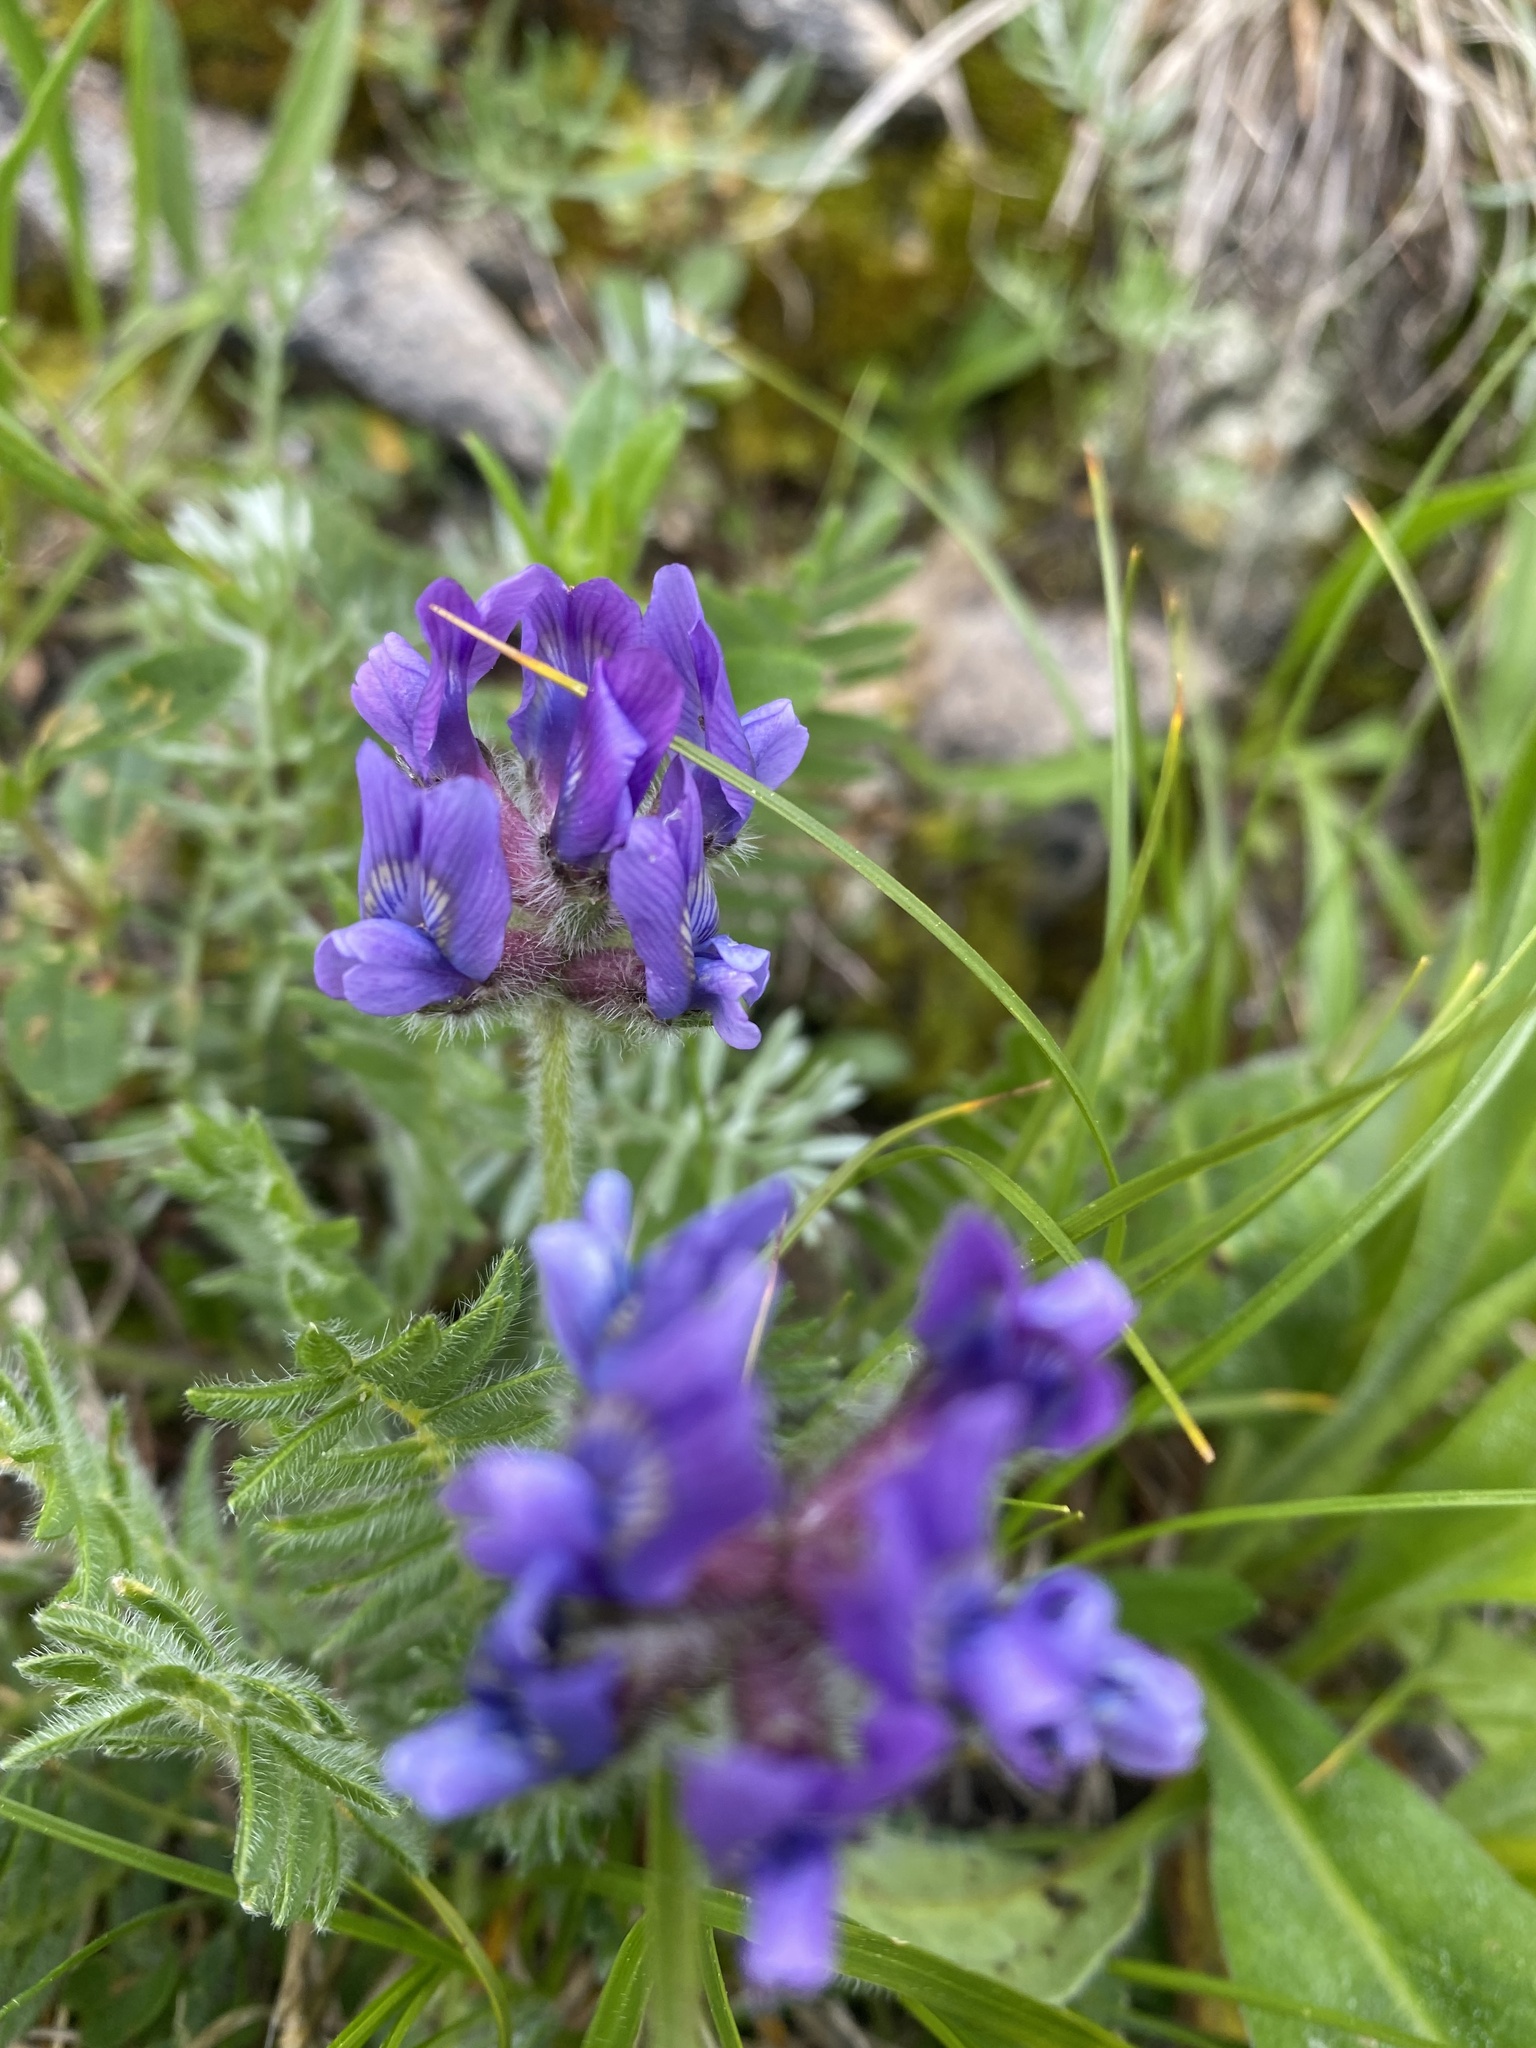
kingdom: Plantae
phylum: Tracheophyta
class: Magnoliopsida
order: Fabales
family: Fabaceae
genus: Oxytropis
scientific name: Oxytropis lazica
